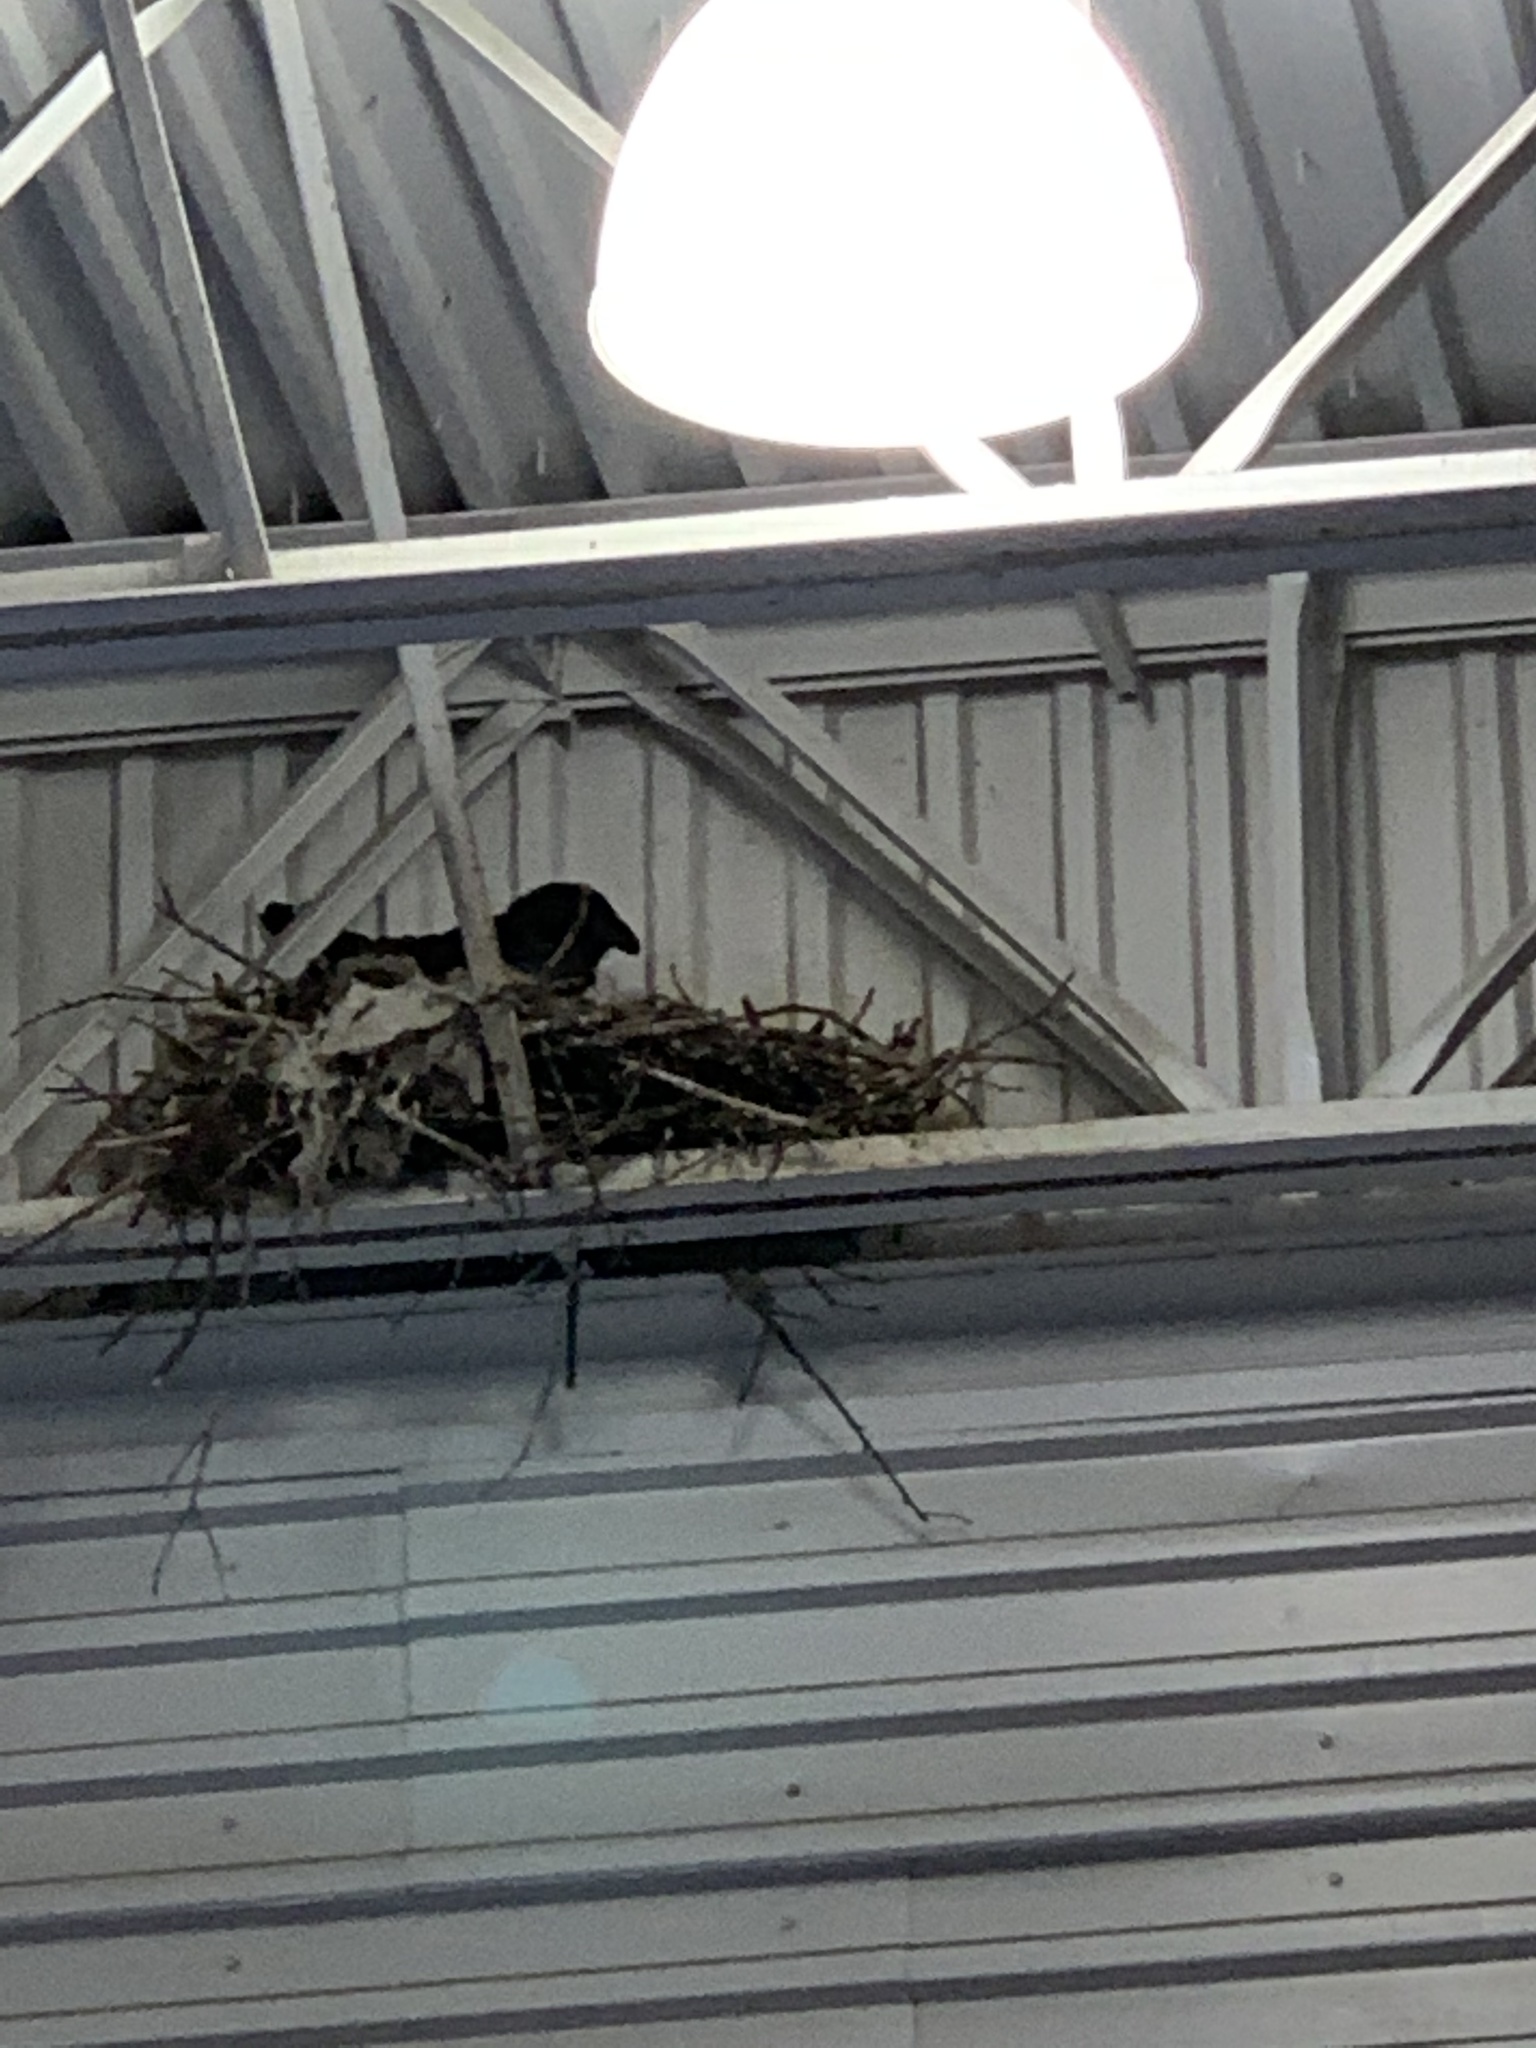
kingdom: Animalia
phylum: Chordata
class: Aves
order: Passeriformes
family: Corvidae
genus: Corvus
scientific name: Corvus corax
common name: Common raven
